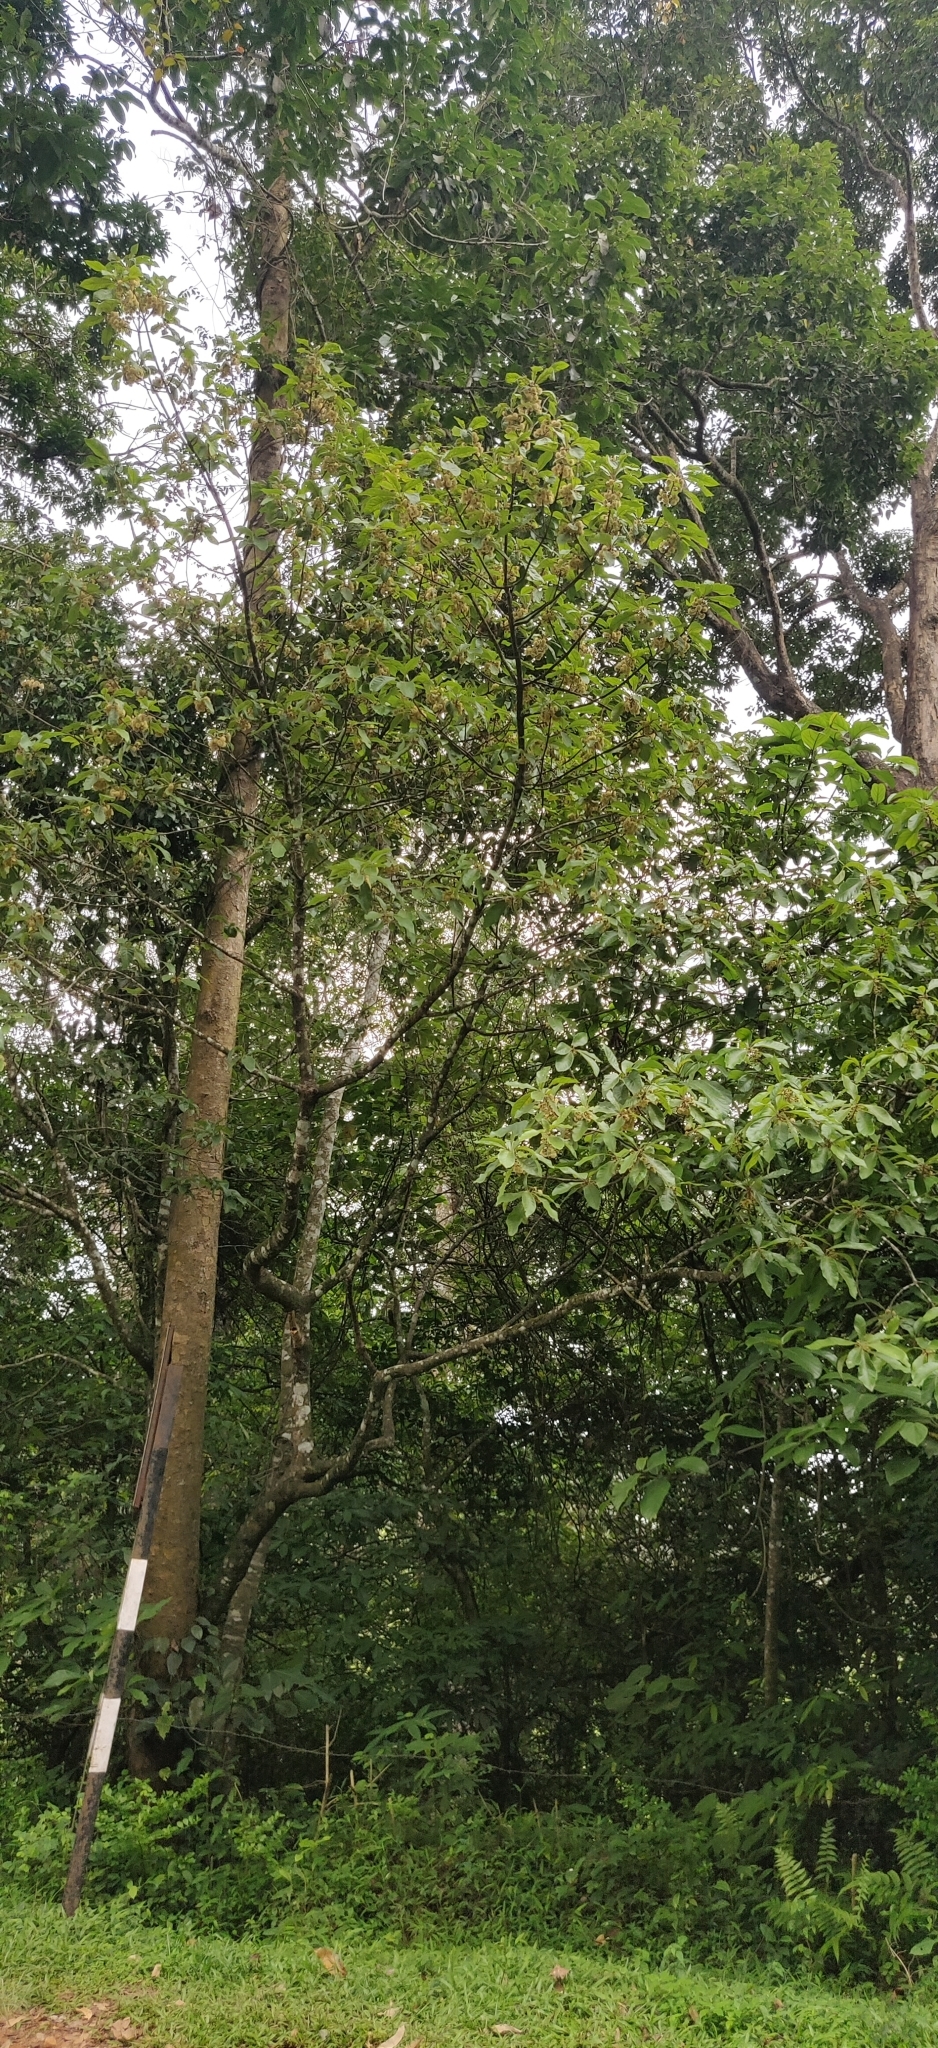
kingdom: Plantae
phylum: Tracheophyta
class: Magnoliopsida
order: Laurales
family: Lauraceae
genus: Litsea
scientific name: Litsea ghatica
